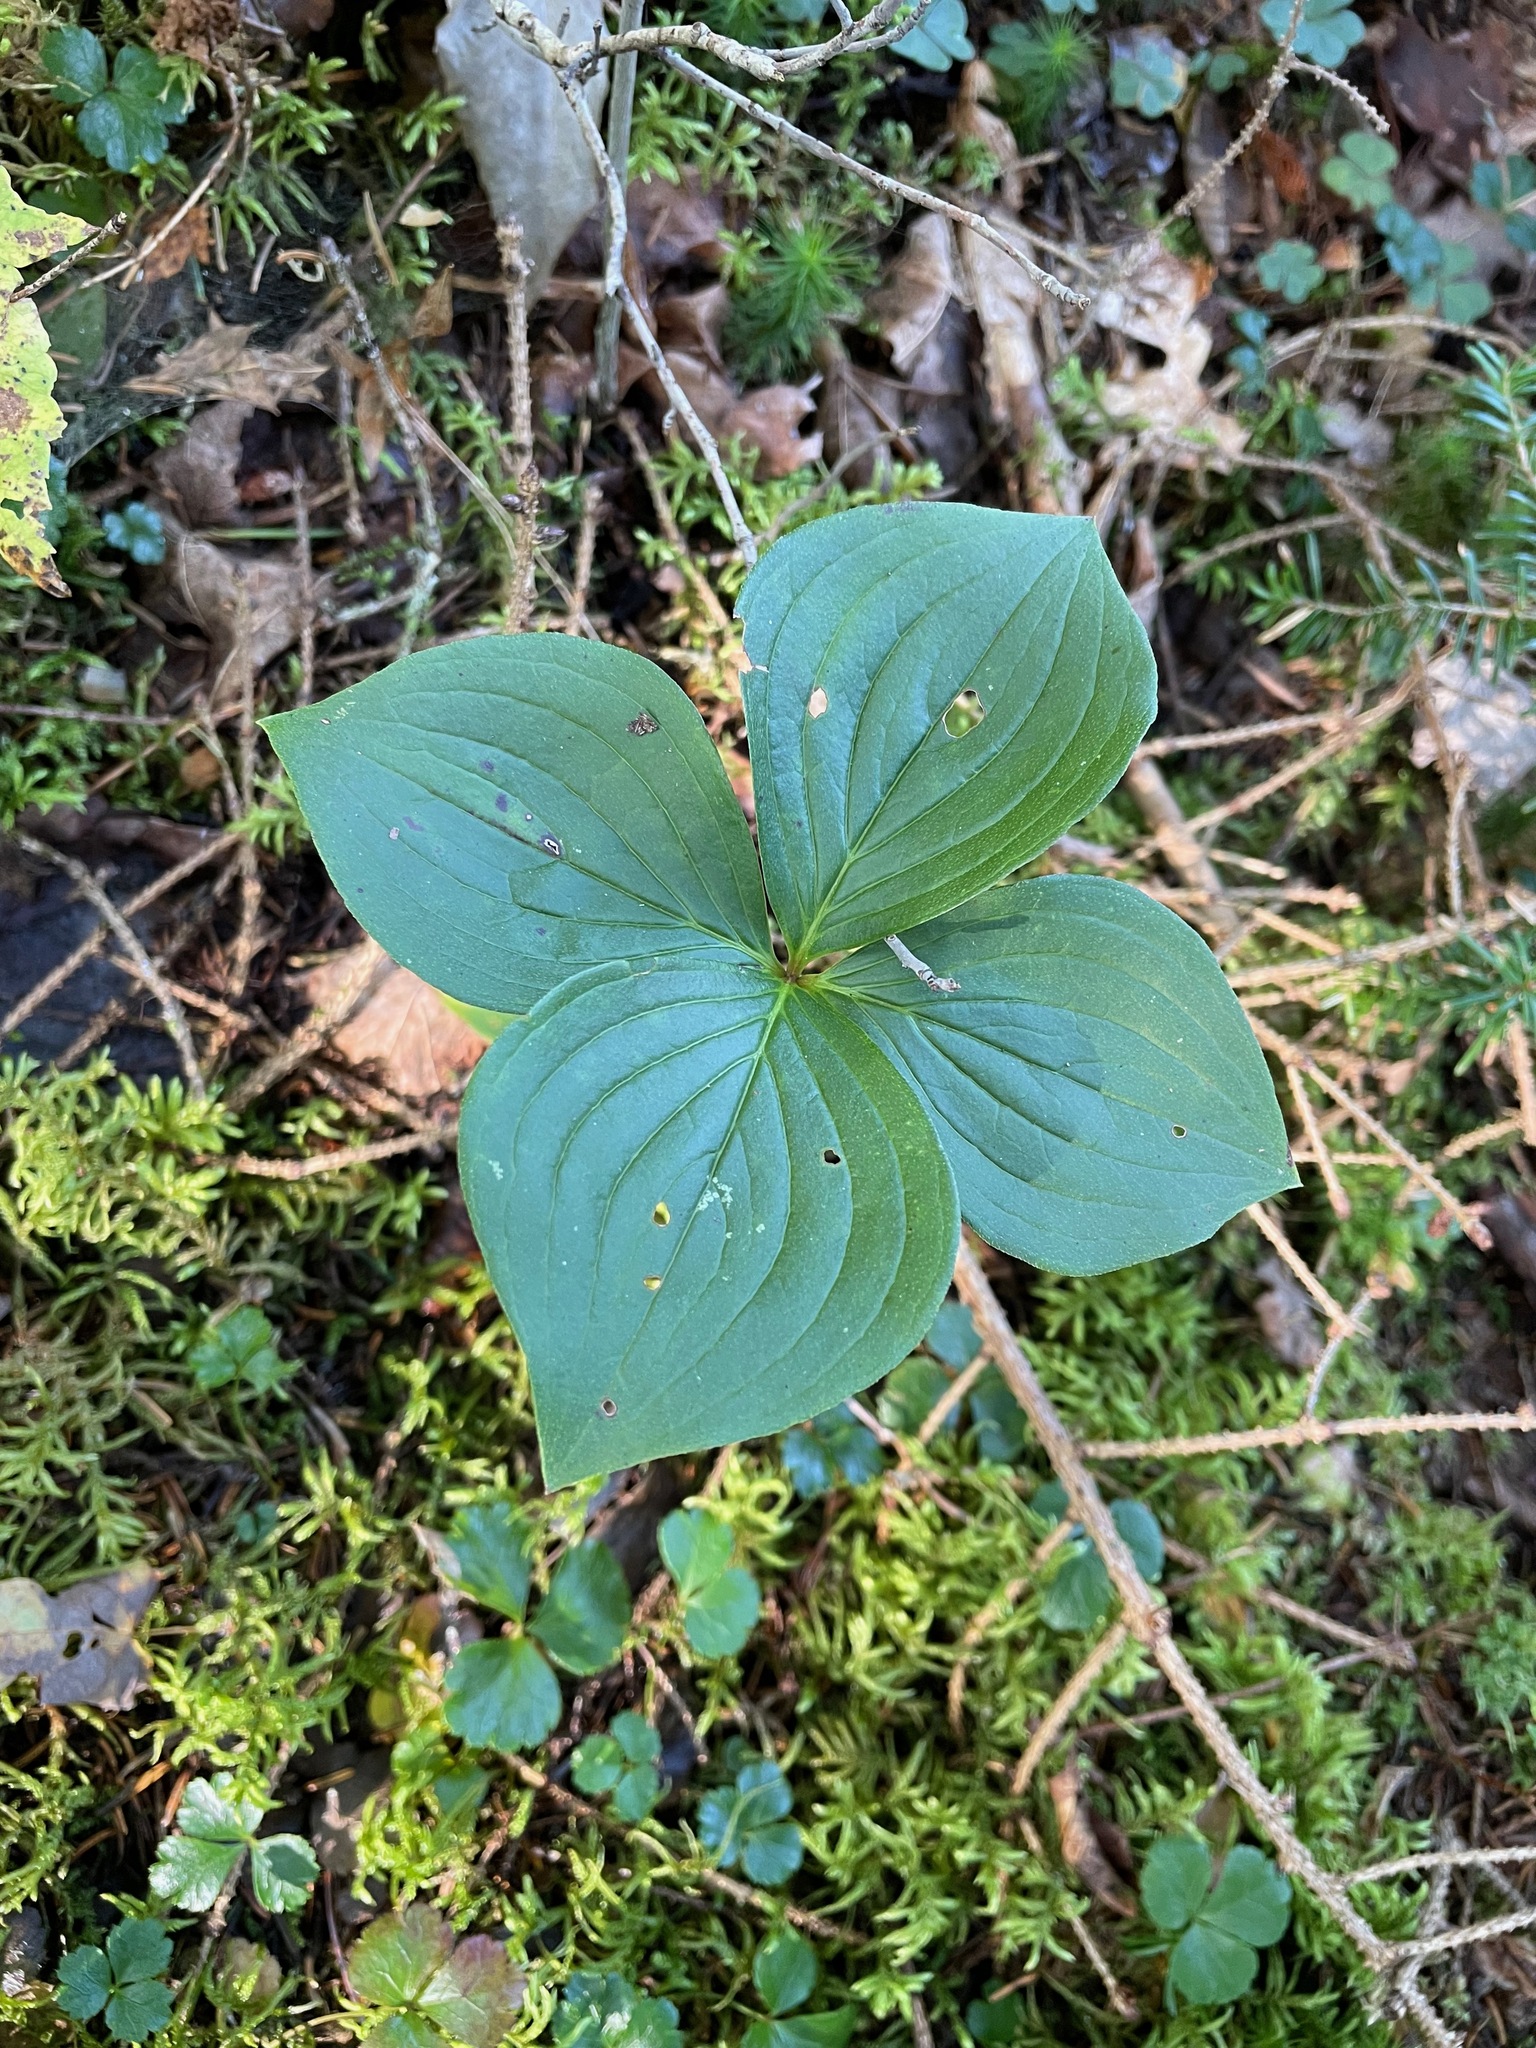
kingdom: Plantae
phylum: Tracheophyta
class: Magnoliopsida
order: Cornales
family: Cornaceae
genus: Cornus
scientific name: Cornus canadensis
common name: Creeping dogwood
